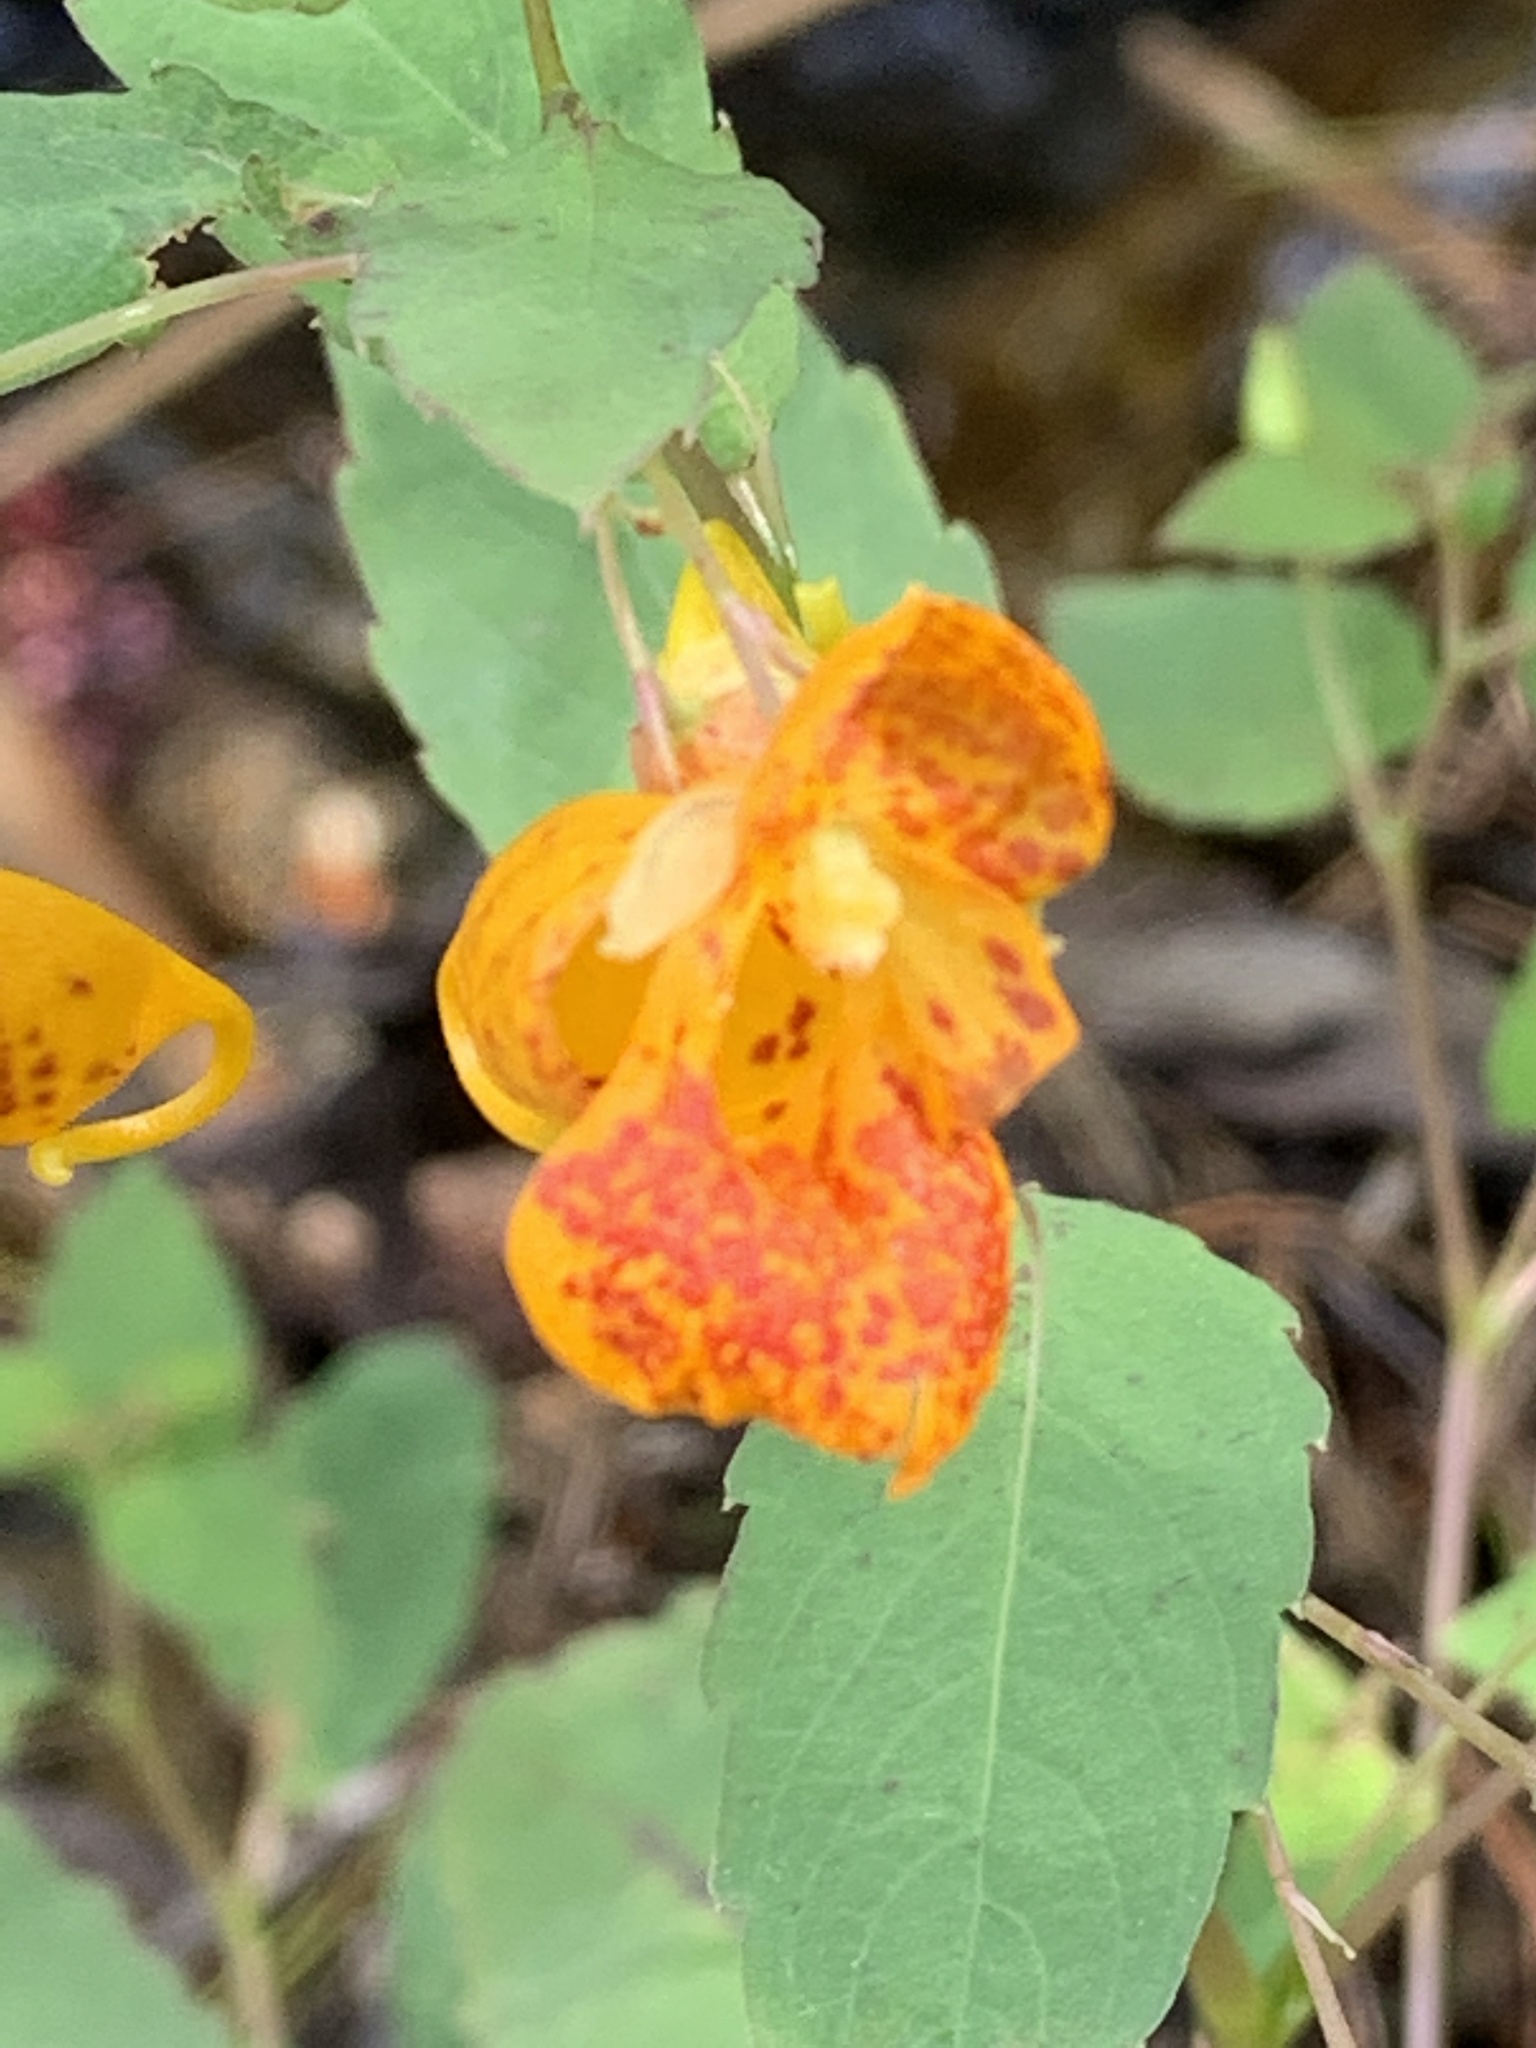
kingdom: Plantae
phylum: Tracheophyta
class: Magnoliopsida
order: Ericales
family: Balsaminaceae
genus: Impatiens
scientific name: Impatiens capensis
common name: Orange balsam
